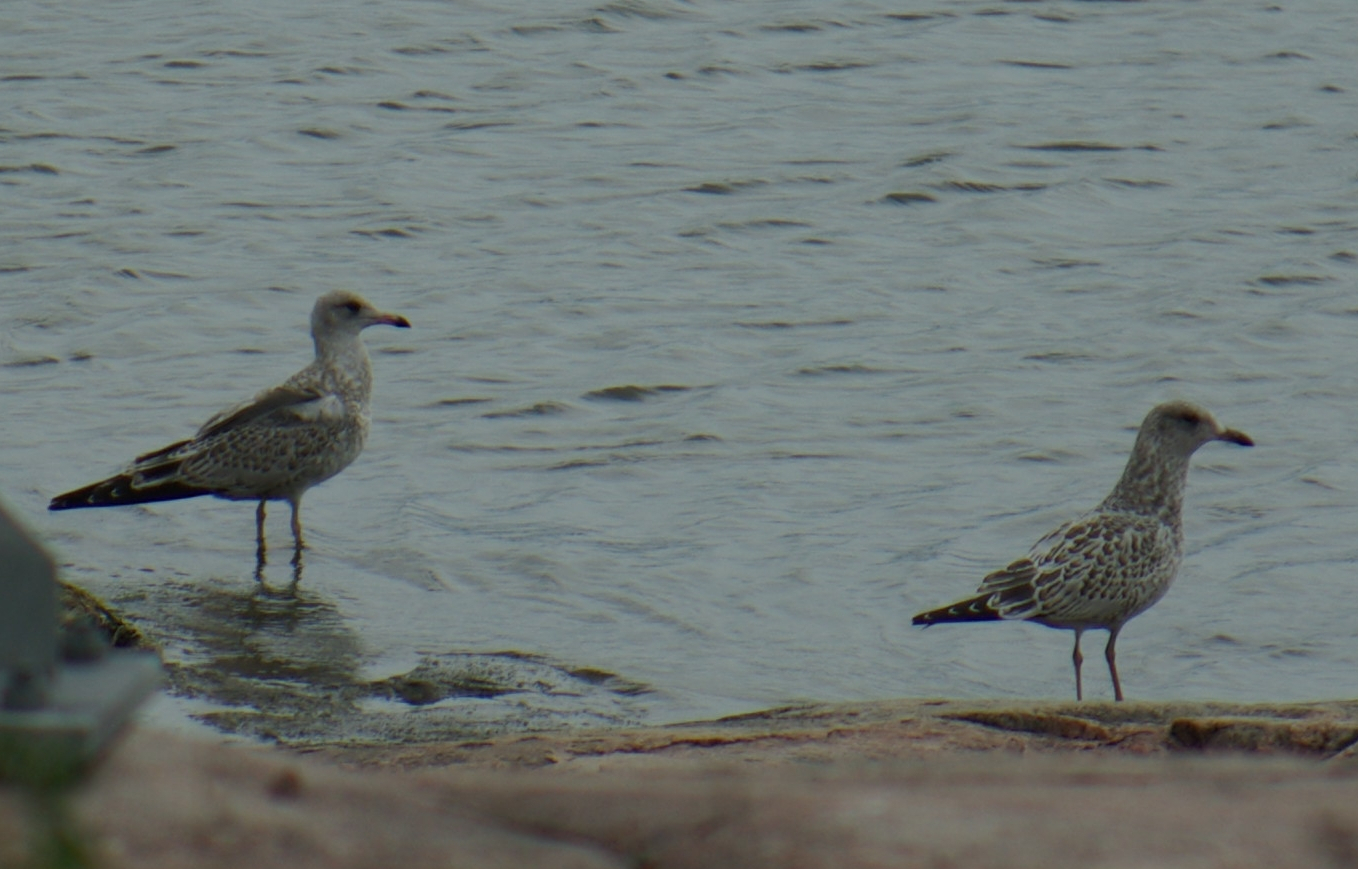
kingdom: Animalia
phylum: Chordata
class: Aves
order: Charadriiformes
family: Laridae
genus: Larus
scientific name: Larus delawarensis
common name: Ring-billed gull
